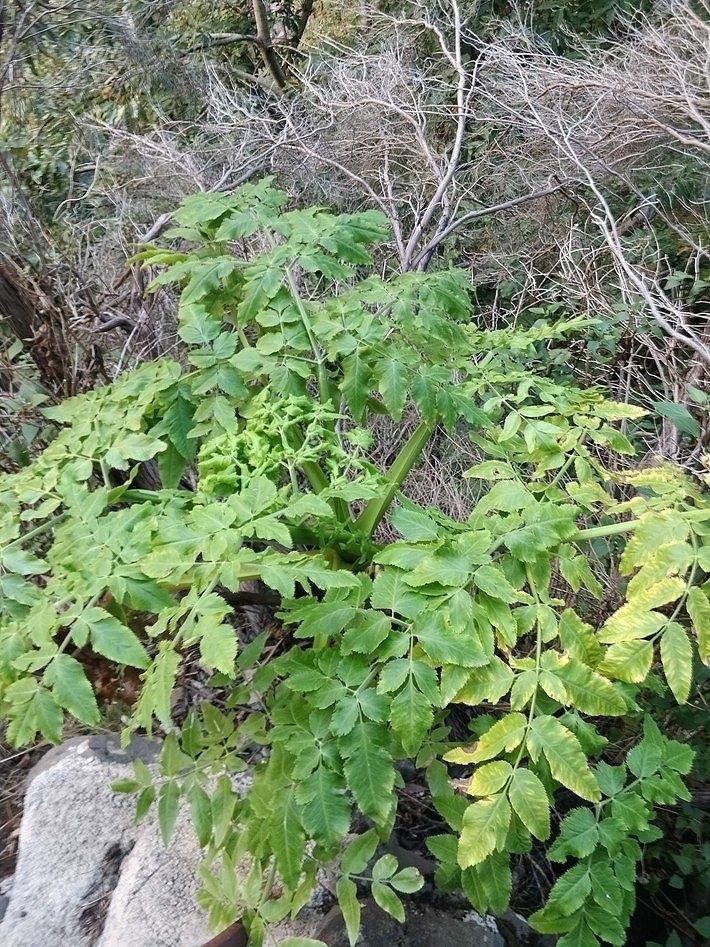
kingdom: Plantae
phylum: Tracheophyta
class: Magnoliopsida
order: Apiales
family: Apiaceae
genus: Daucus
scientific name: Daucus decipiens
